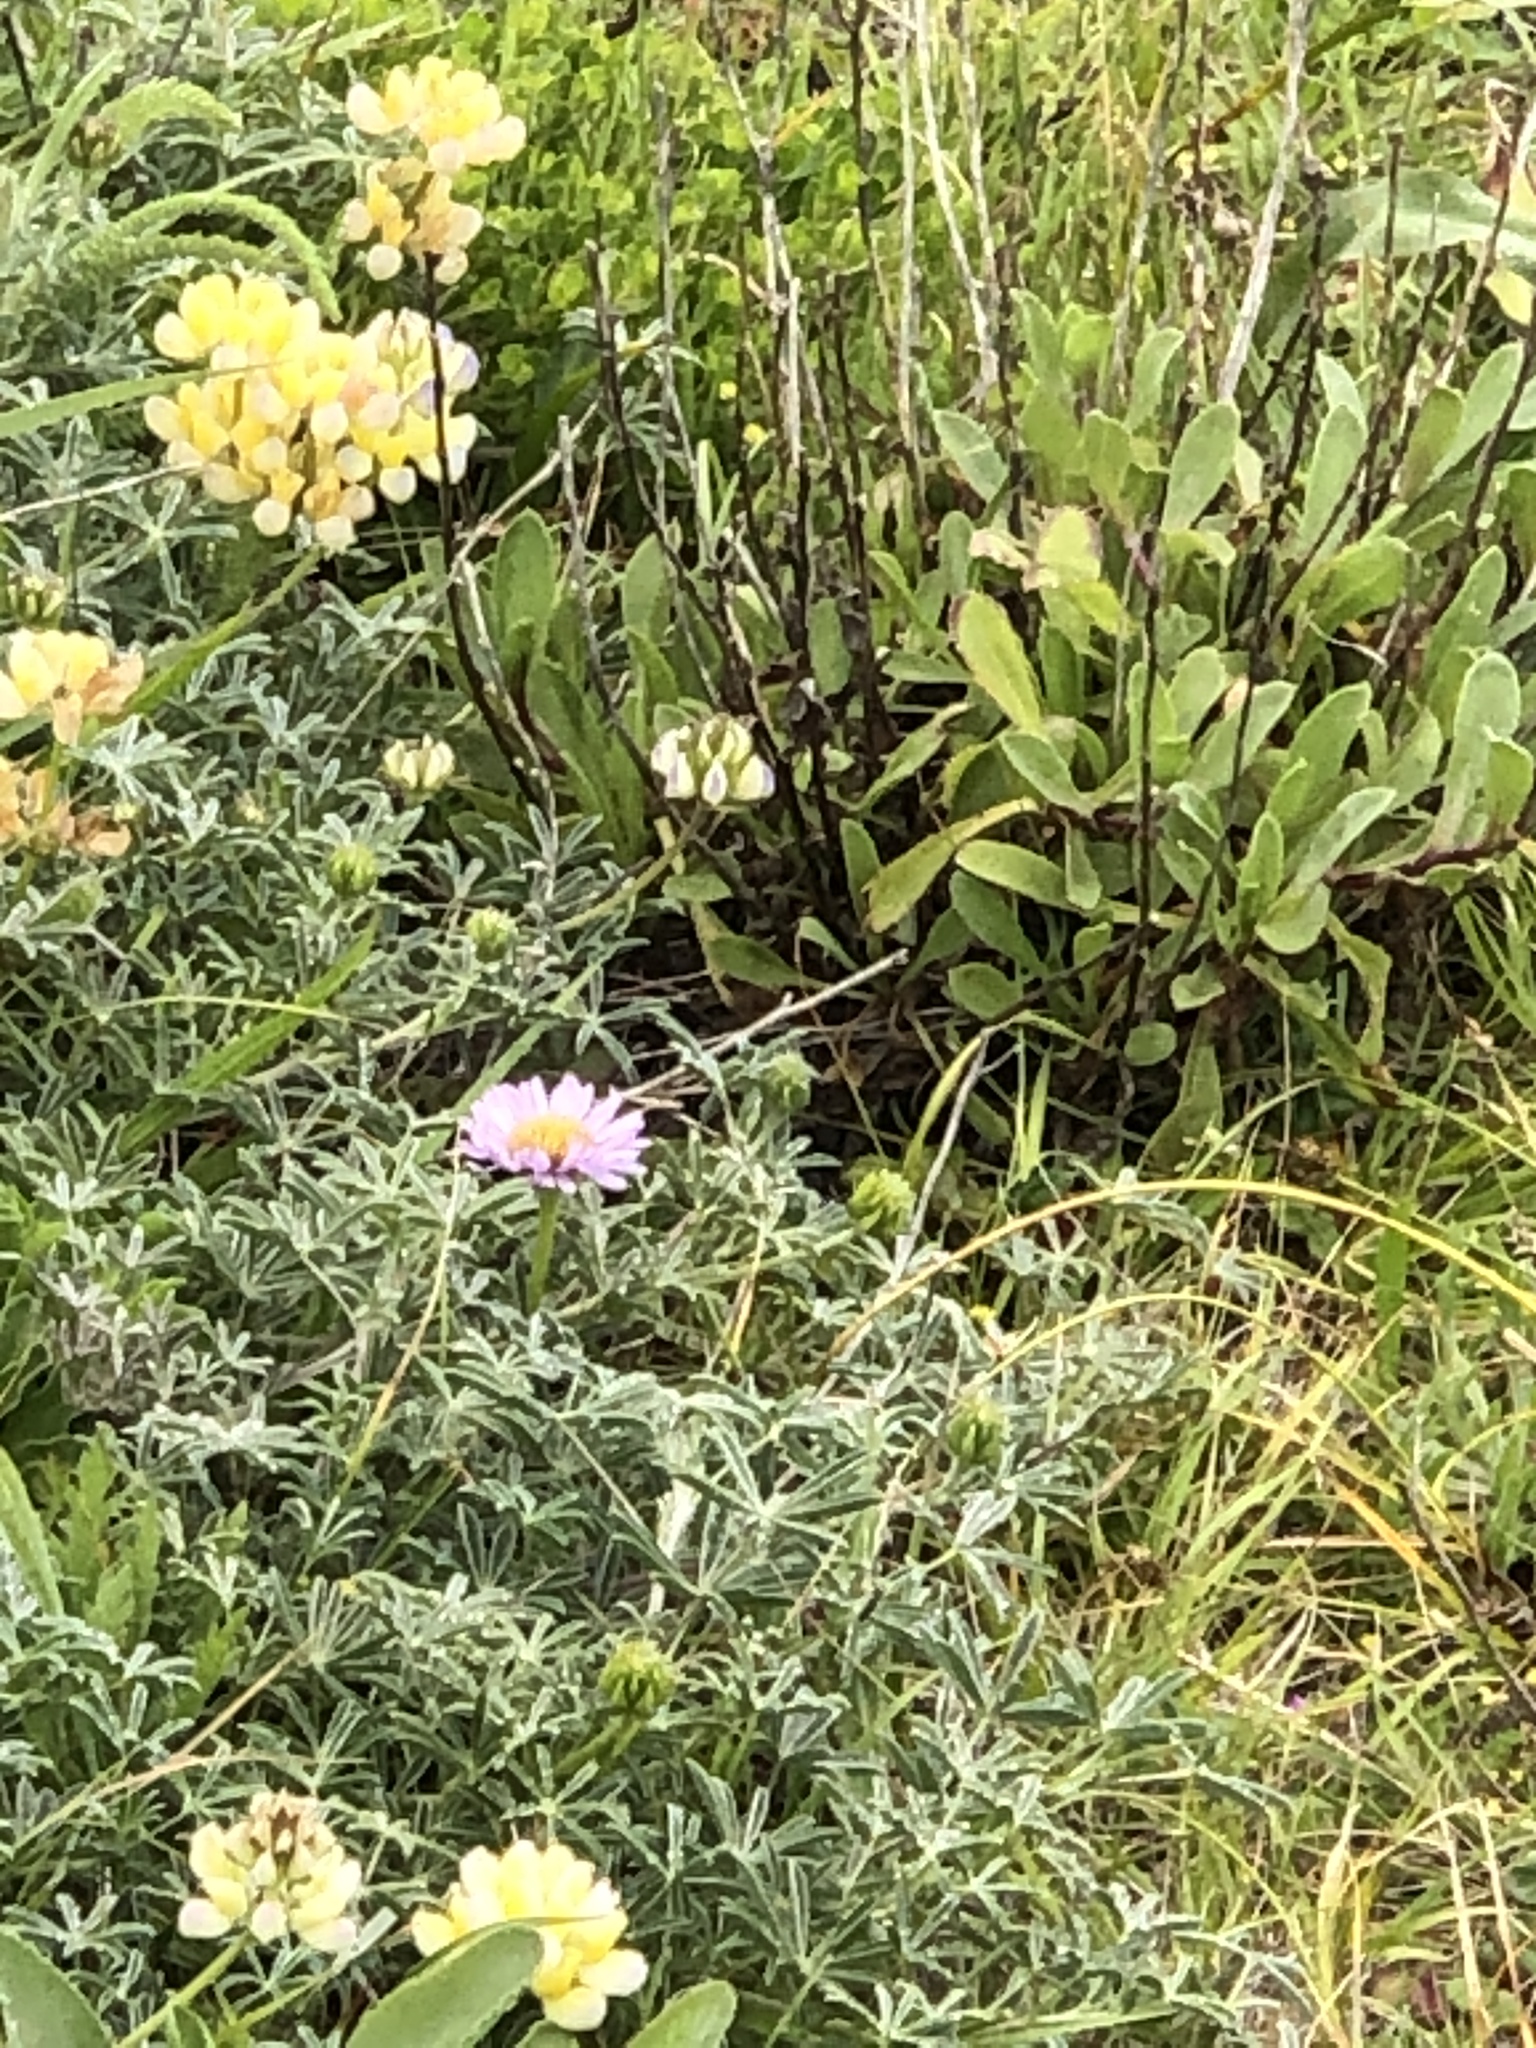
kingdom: Plantae
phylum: Tracheophyta
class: Magnoliopsida
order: Asterales
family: Asteraceae
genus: Erigeron
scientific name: Erigeron glaucus
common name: Seaside daisy
